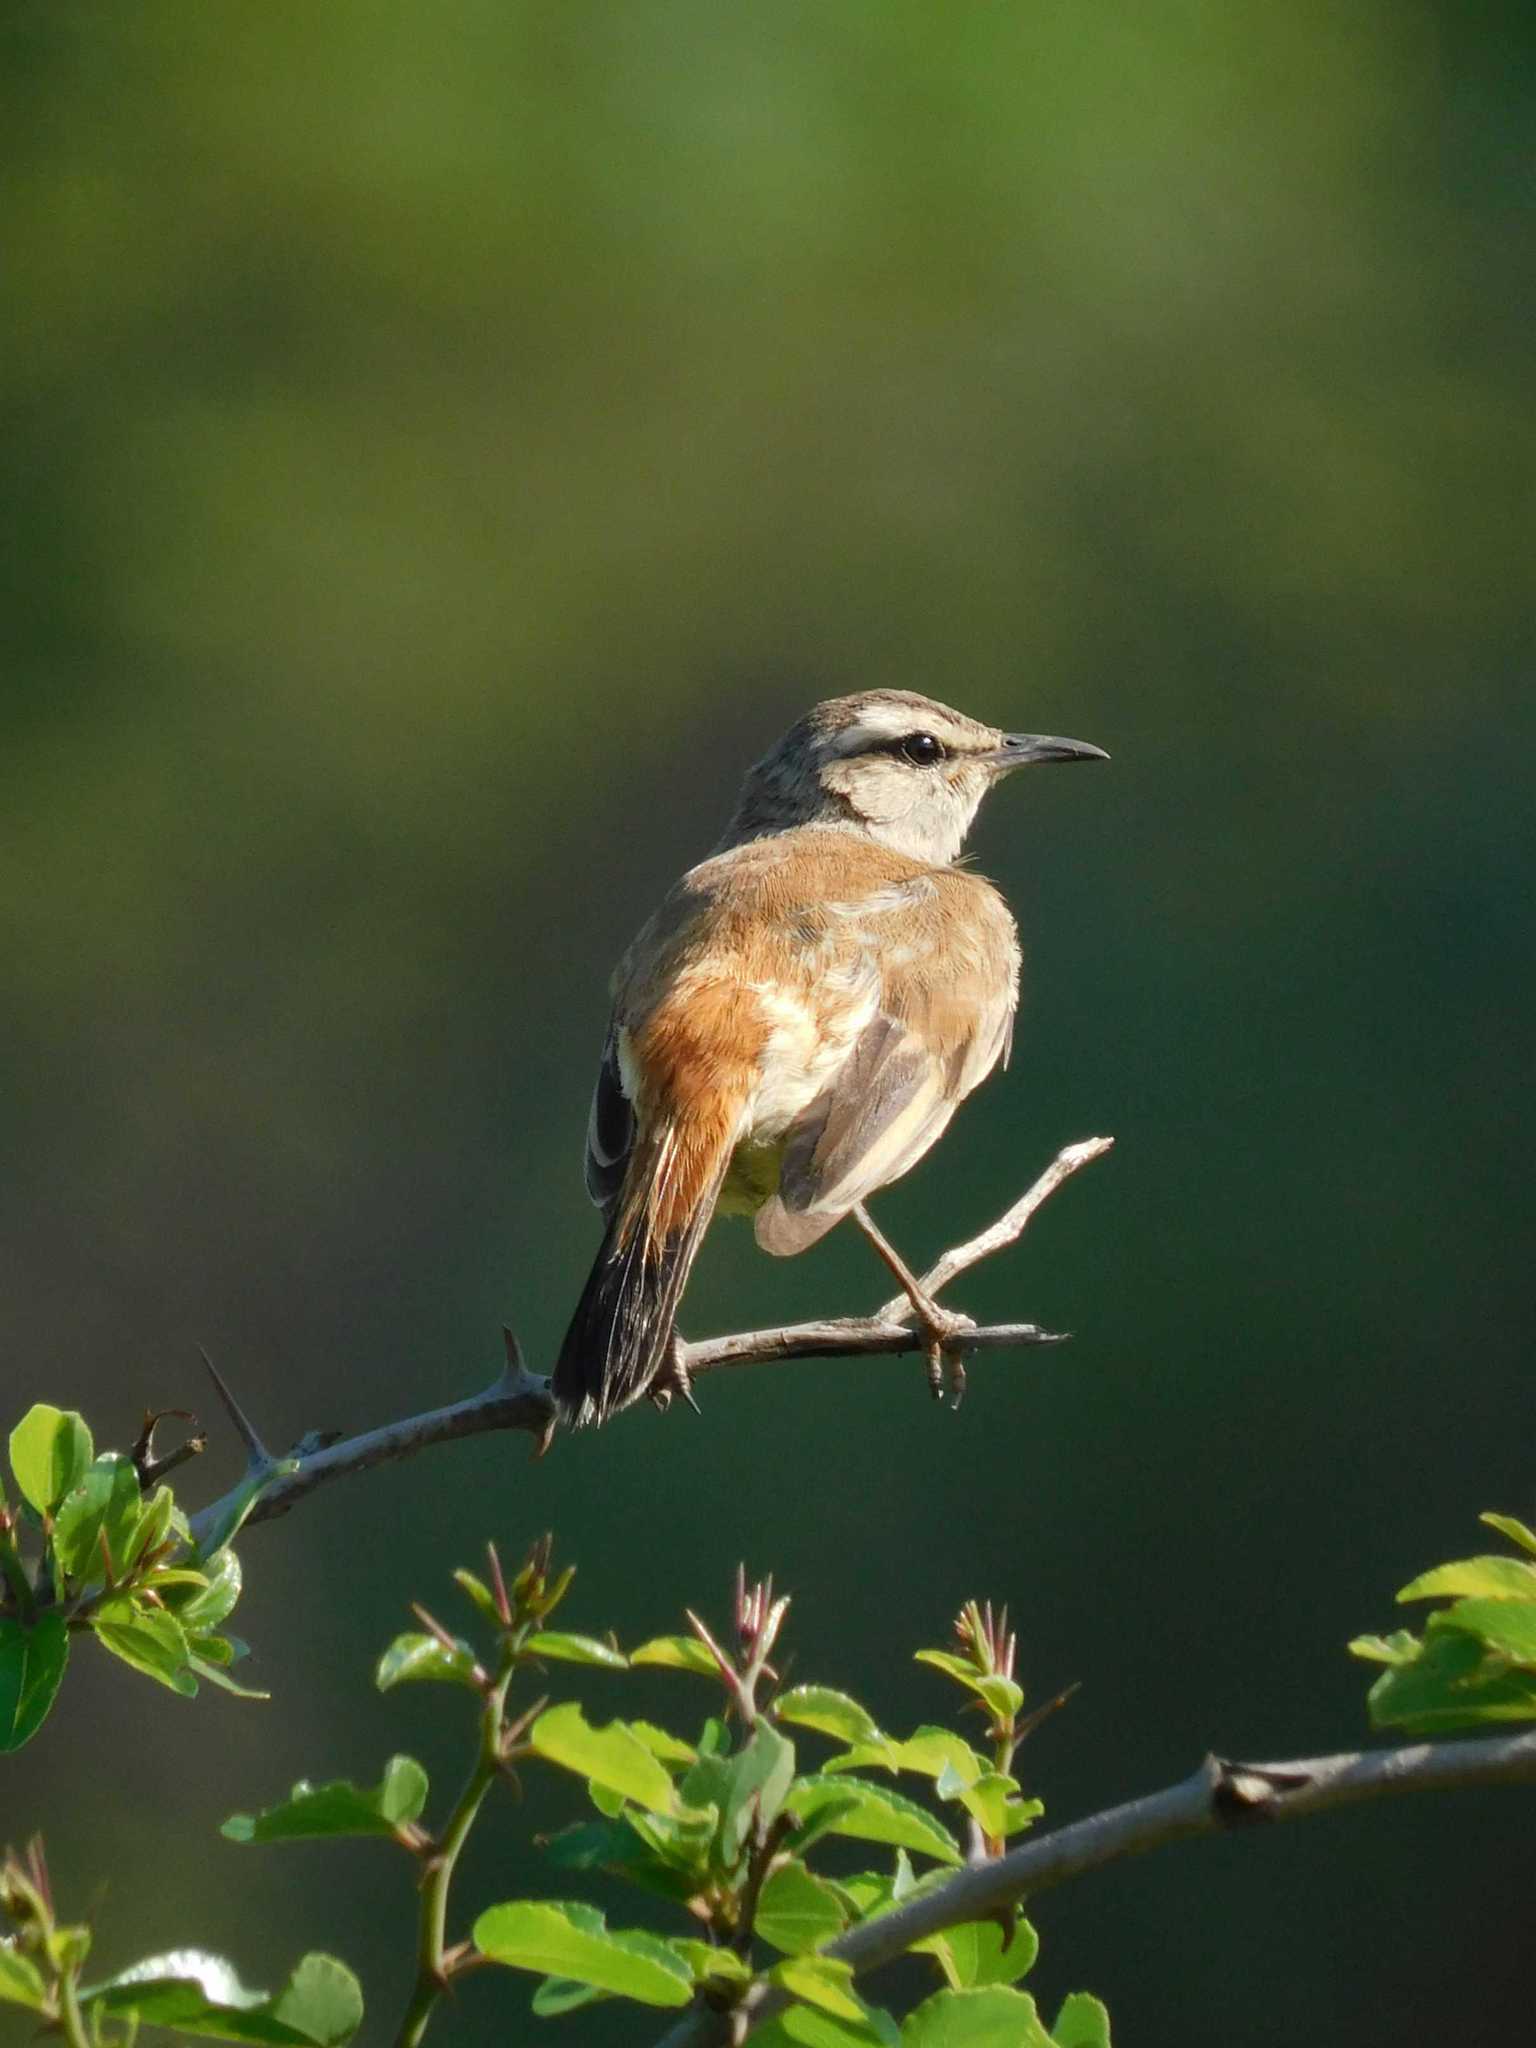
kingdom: Animalia
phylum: Chordata
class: Aves
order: Passeriformes
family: Muscicapidae
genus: Erythropygia
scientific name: Erythropygia paena
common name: Kalahari scrub robin
